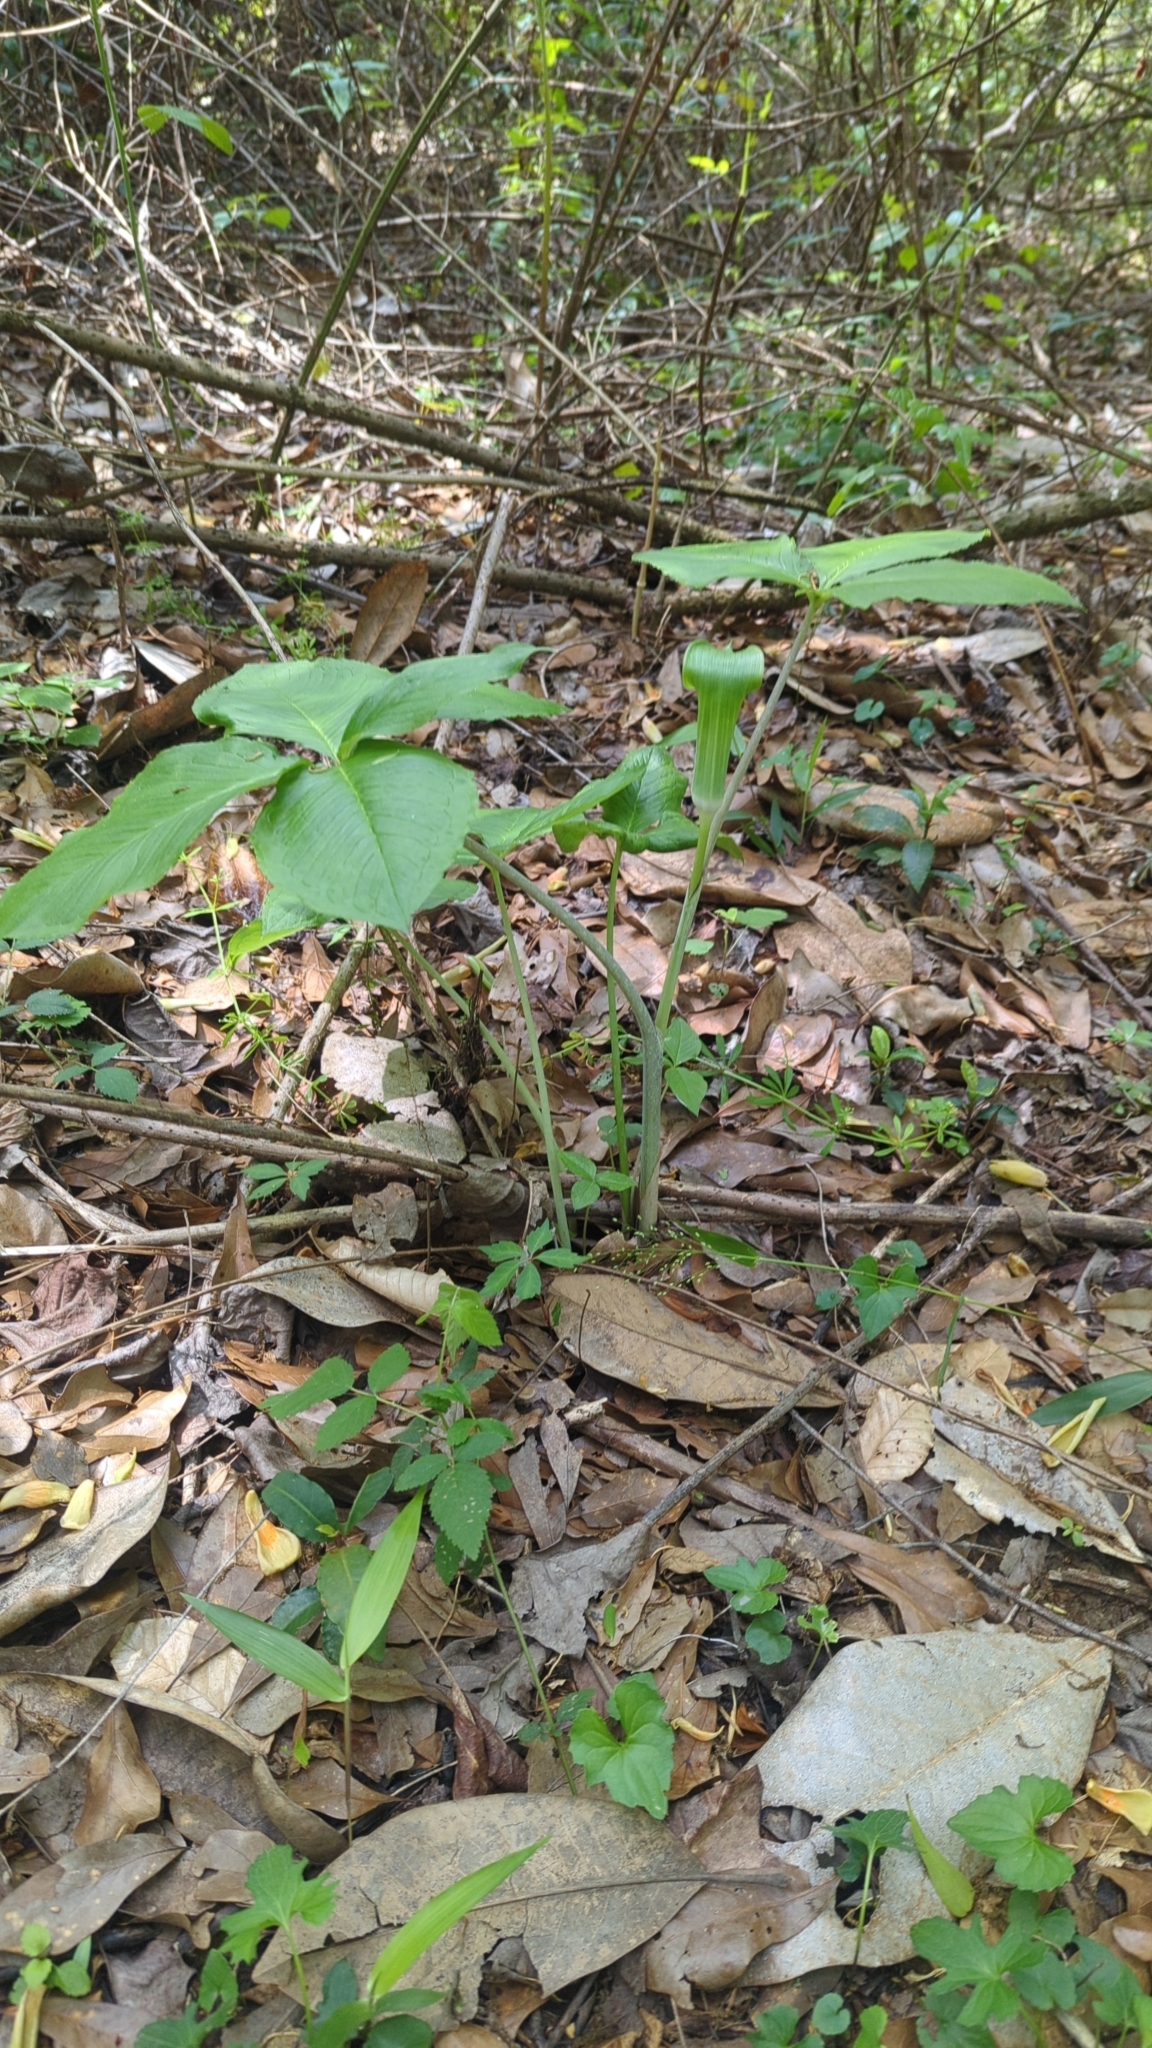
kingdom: Plantae
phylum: Tracheophyta
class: Liliopsida
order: Alismatales
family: Araceae
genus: Arisaema
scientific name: Arisaema quinatum
